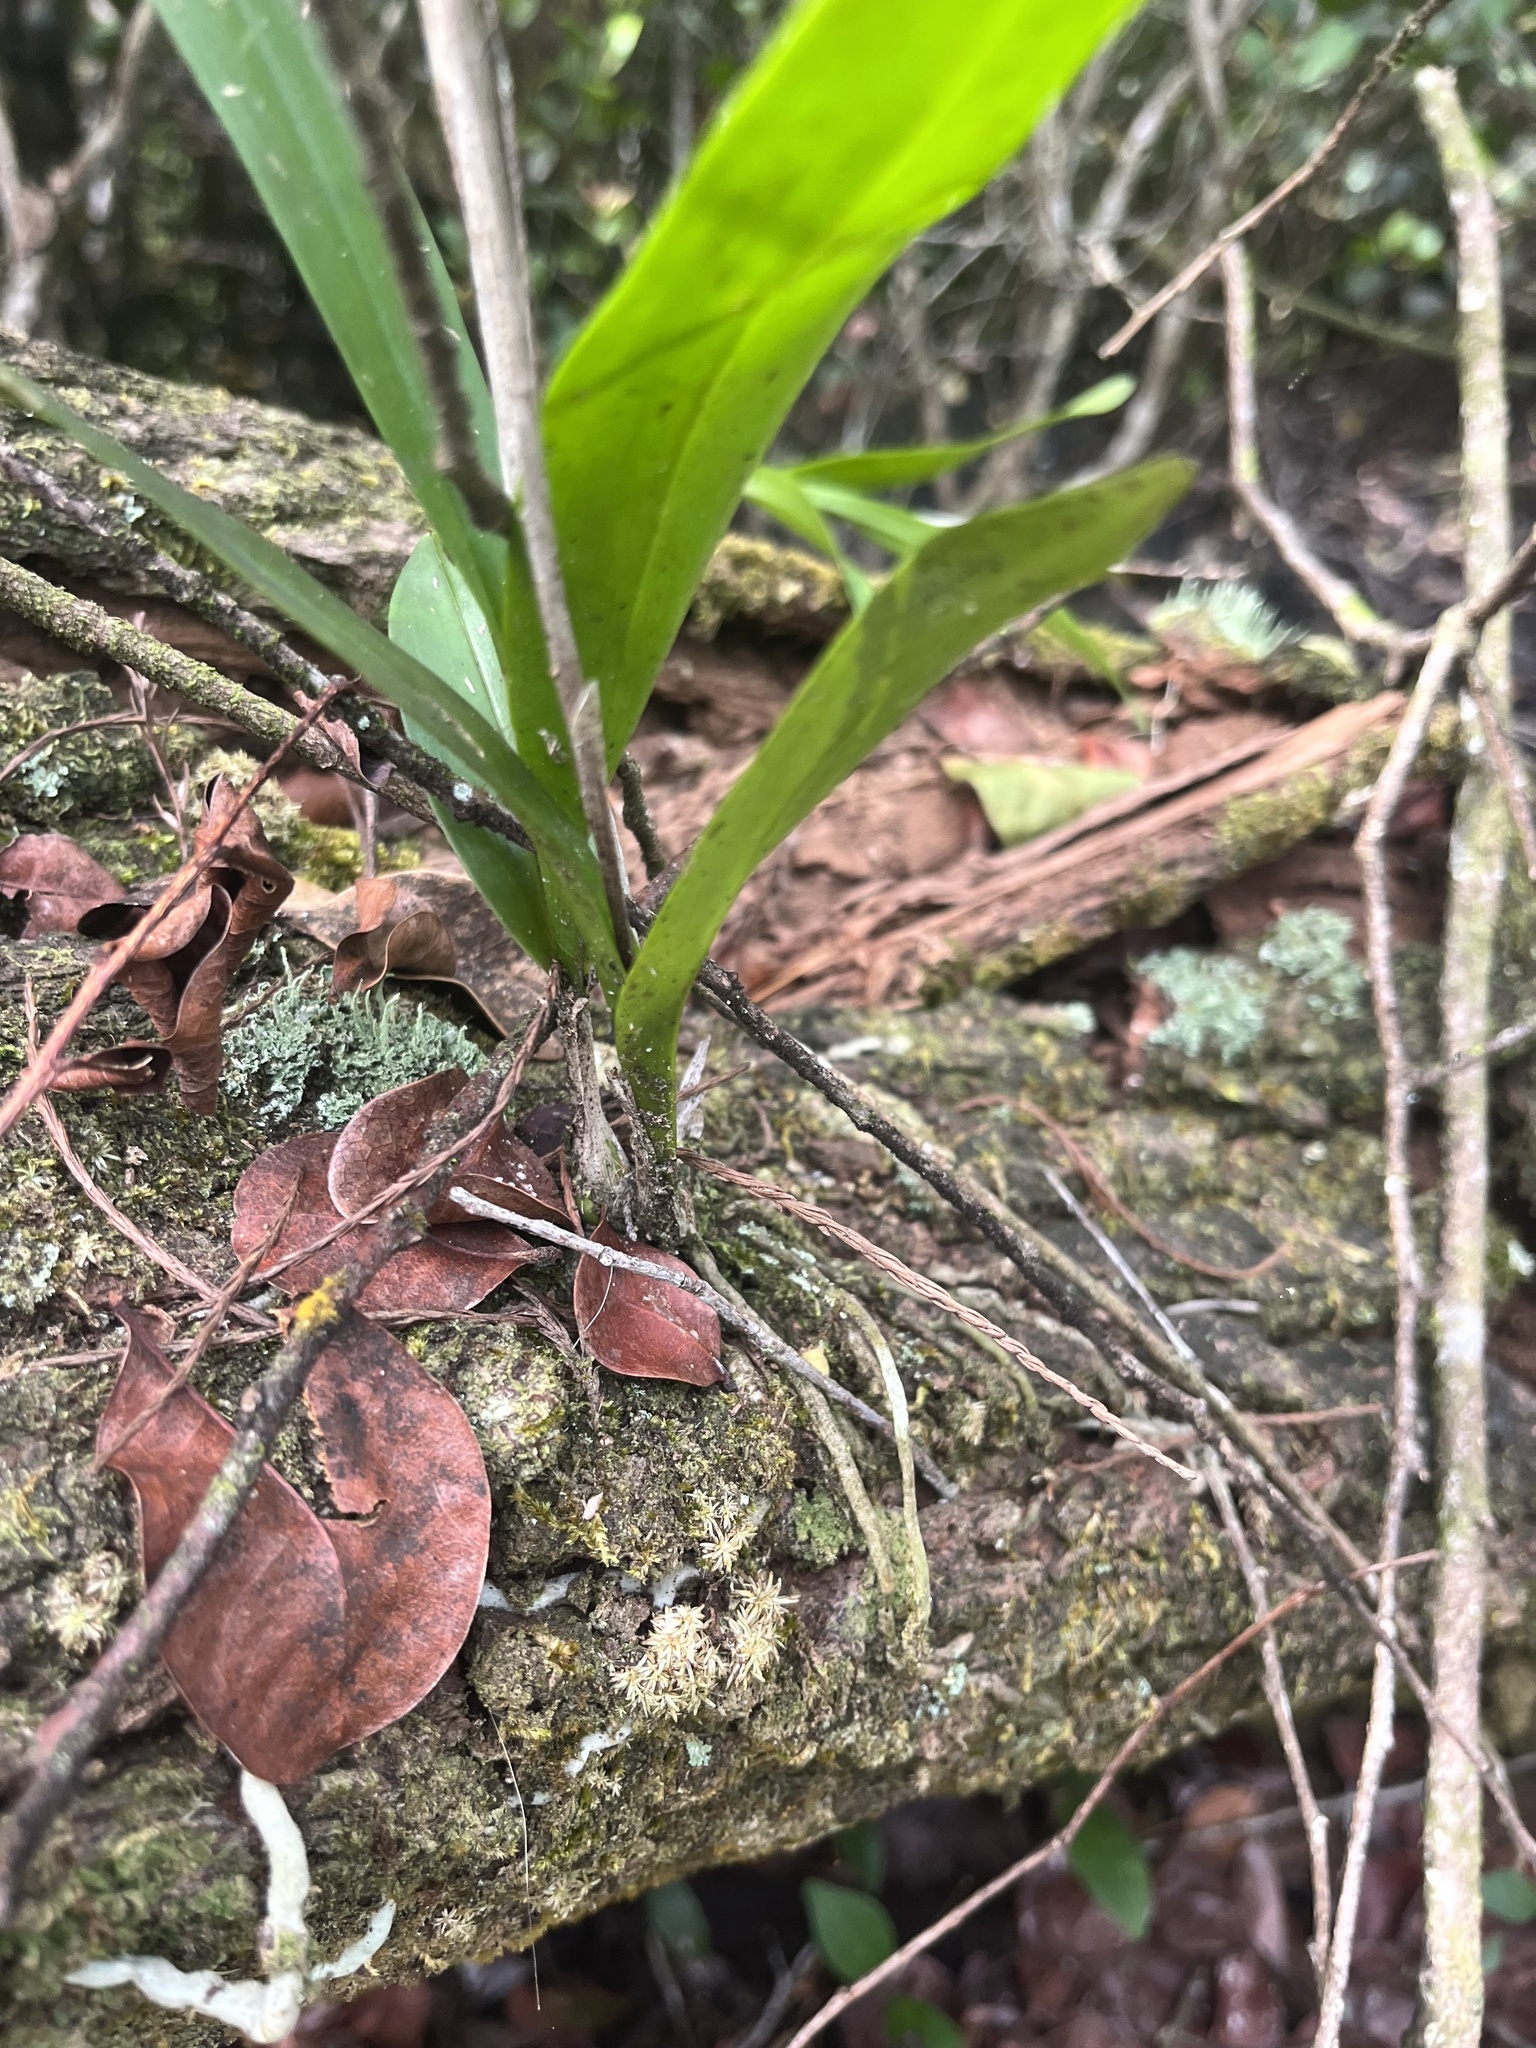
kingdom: Plantae
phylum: Tracheophyta
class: Liliopsida
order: Asparagales
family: Orchidaceae
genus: Polystachya
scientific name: Polystachya concreta
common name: Greater yellowspike orchid
